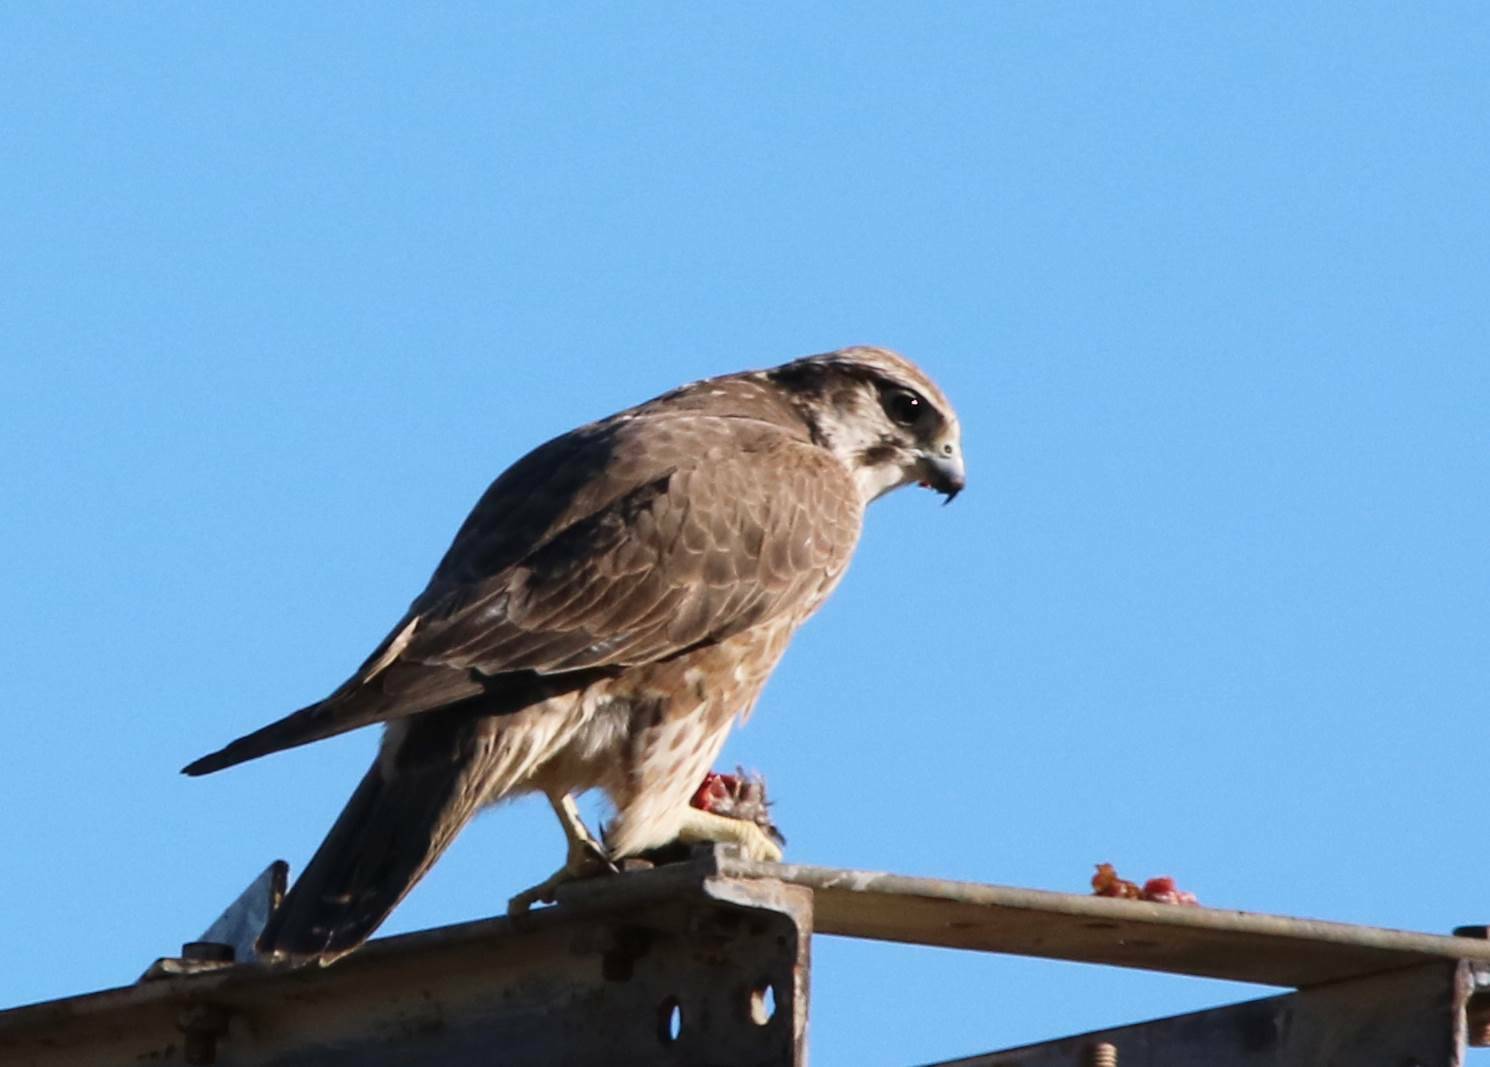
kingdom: Animalia
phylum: Chordata
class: Aves
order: Falconiformes
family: Falconidae
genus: Falco
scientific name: Falco biarmicus
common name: Lanner falcon
